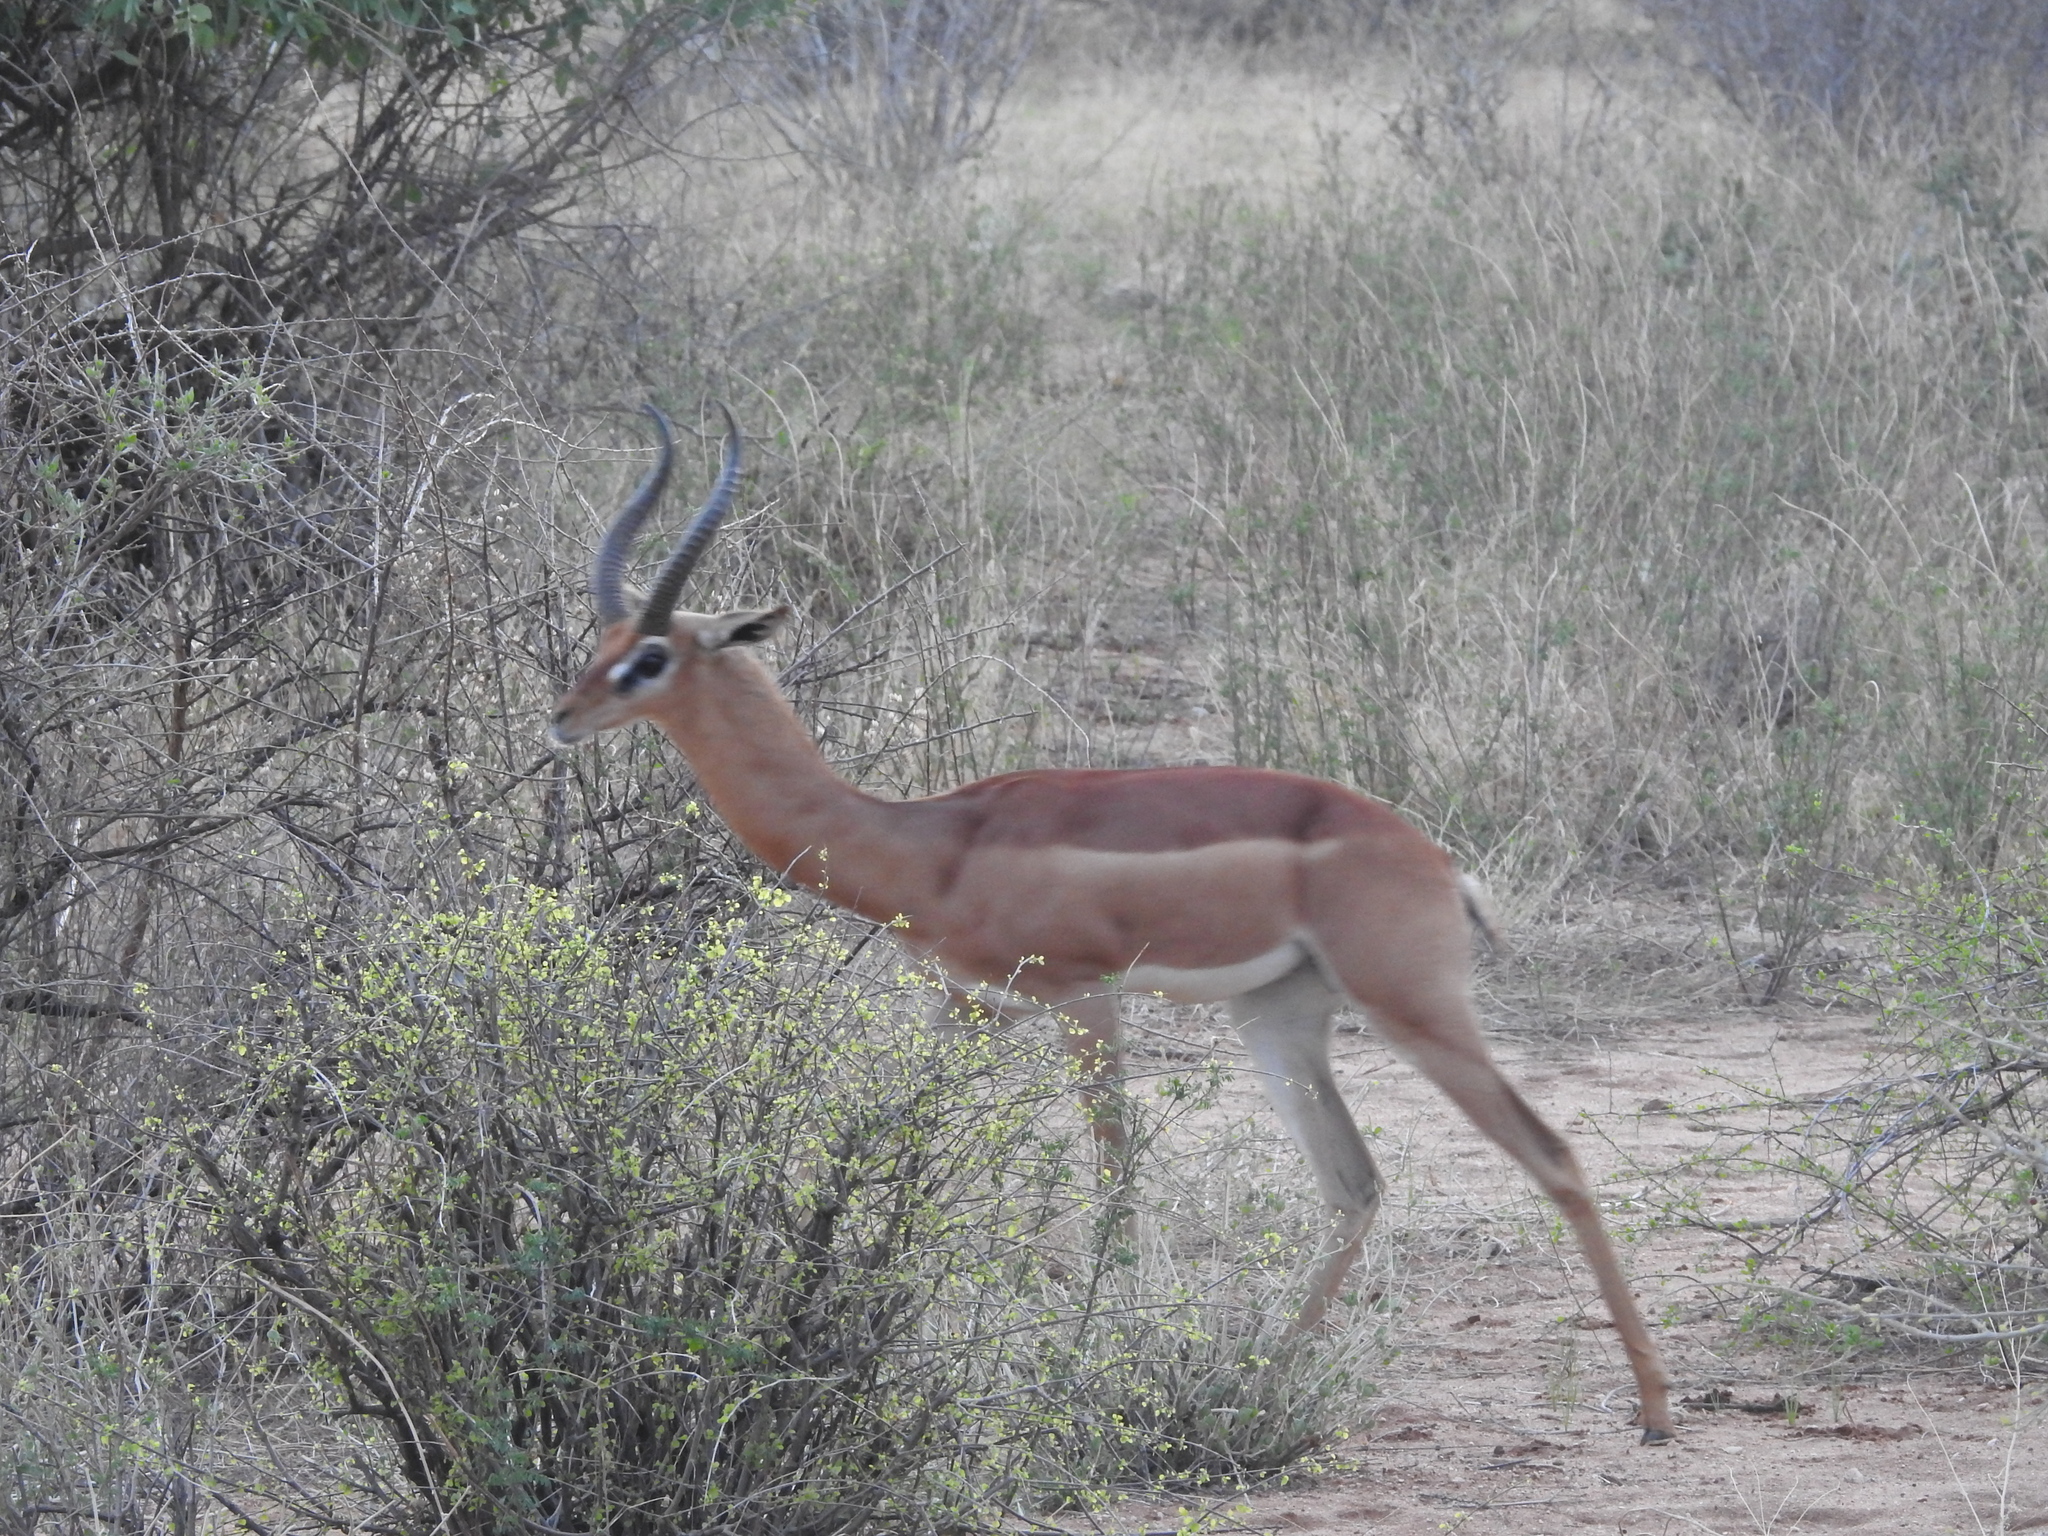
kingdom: Animalia
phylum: Chordata
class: Mammalia
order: Artiodactyla
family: Bovidae
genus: Litocranius
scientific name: Litocranius walleri
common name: Gerenuk
